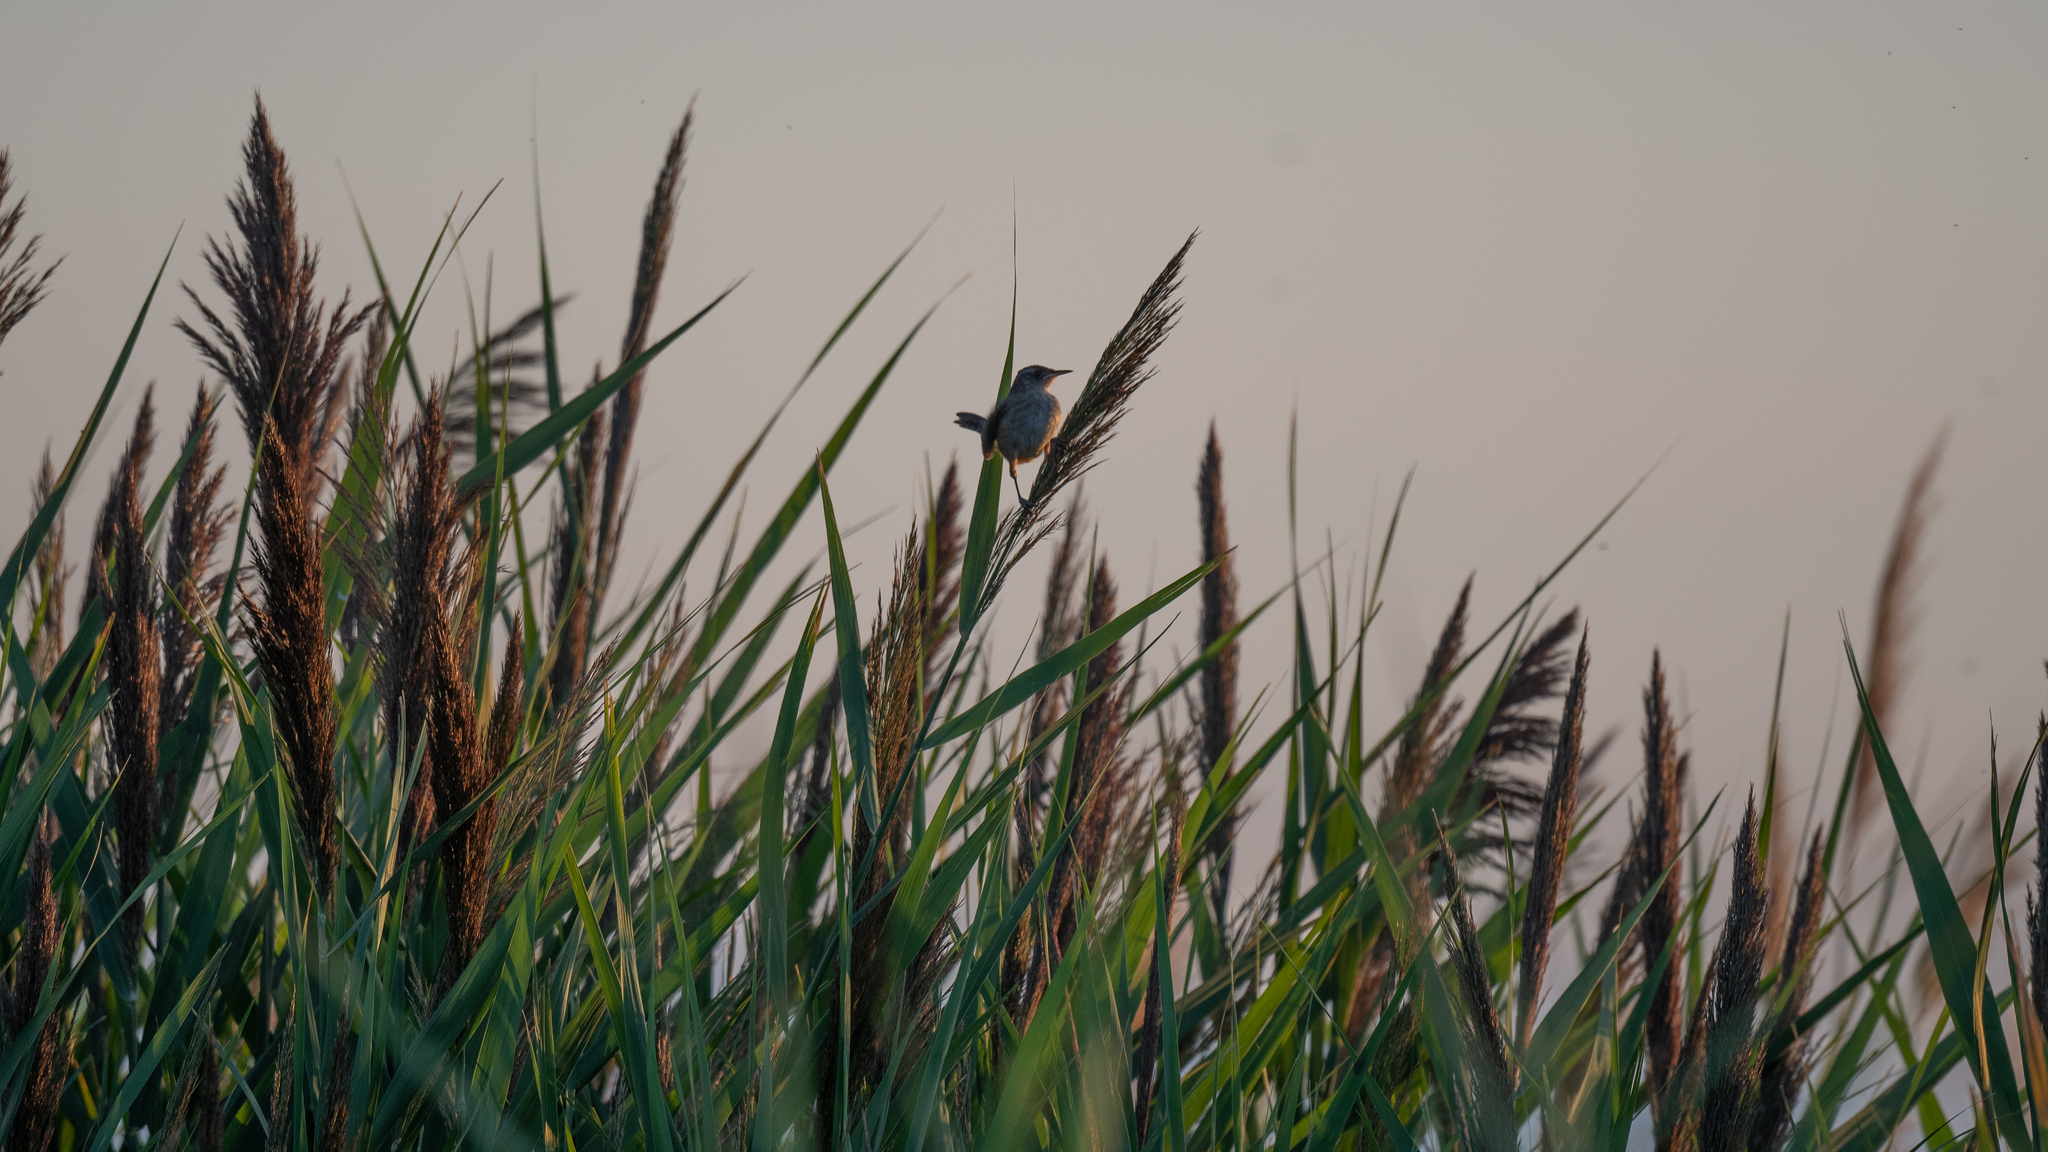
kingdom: Animalia
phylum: Chordata
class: Aves
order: Passeriformes
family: Troglodytidae
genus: Cistothorus
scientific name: Cistothorus palustris
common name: Marsh wren
